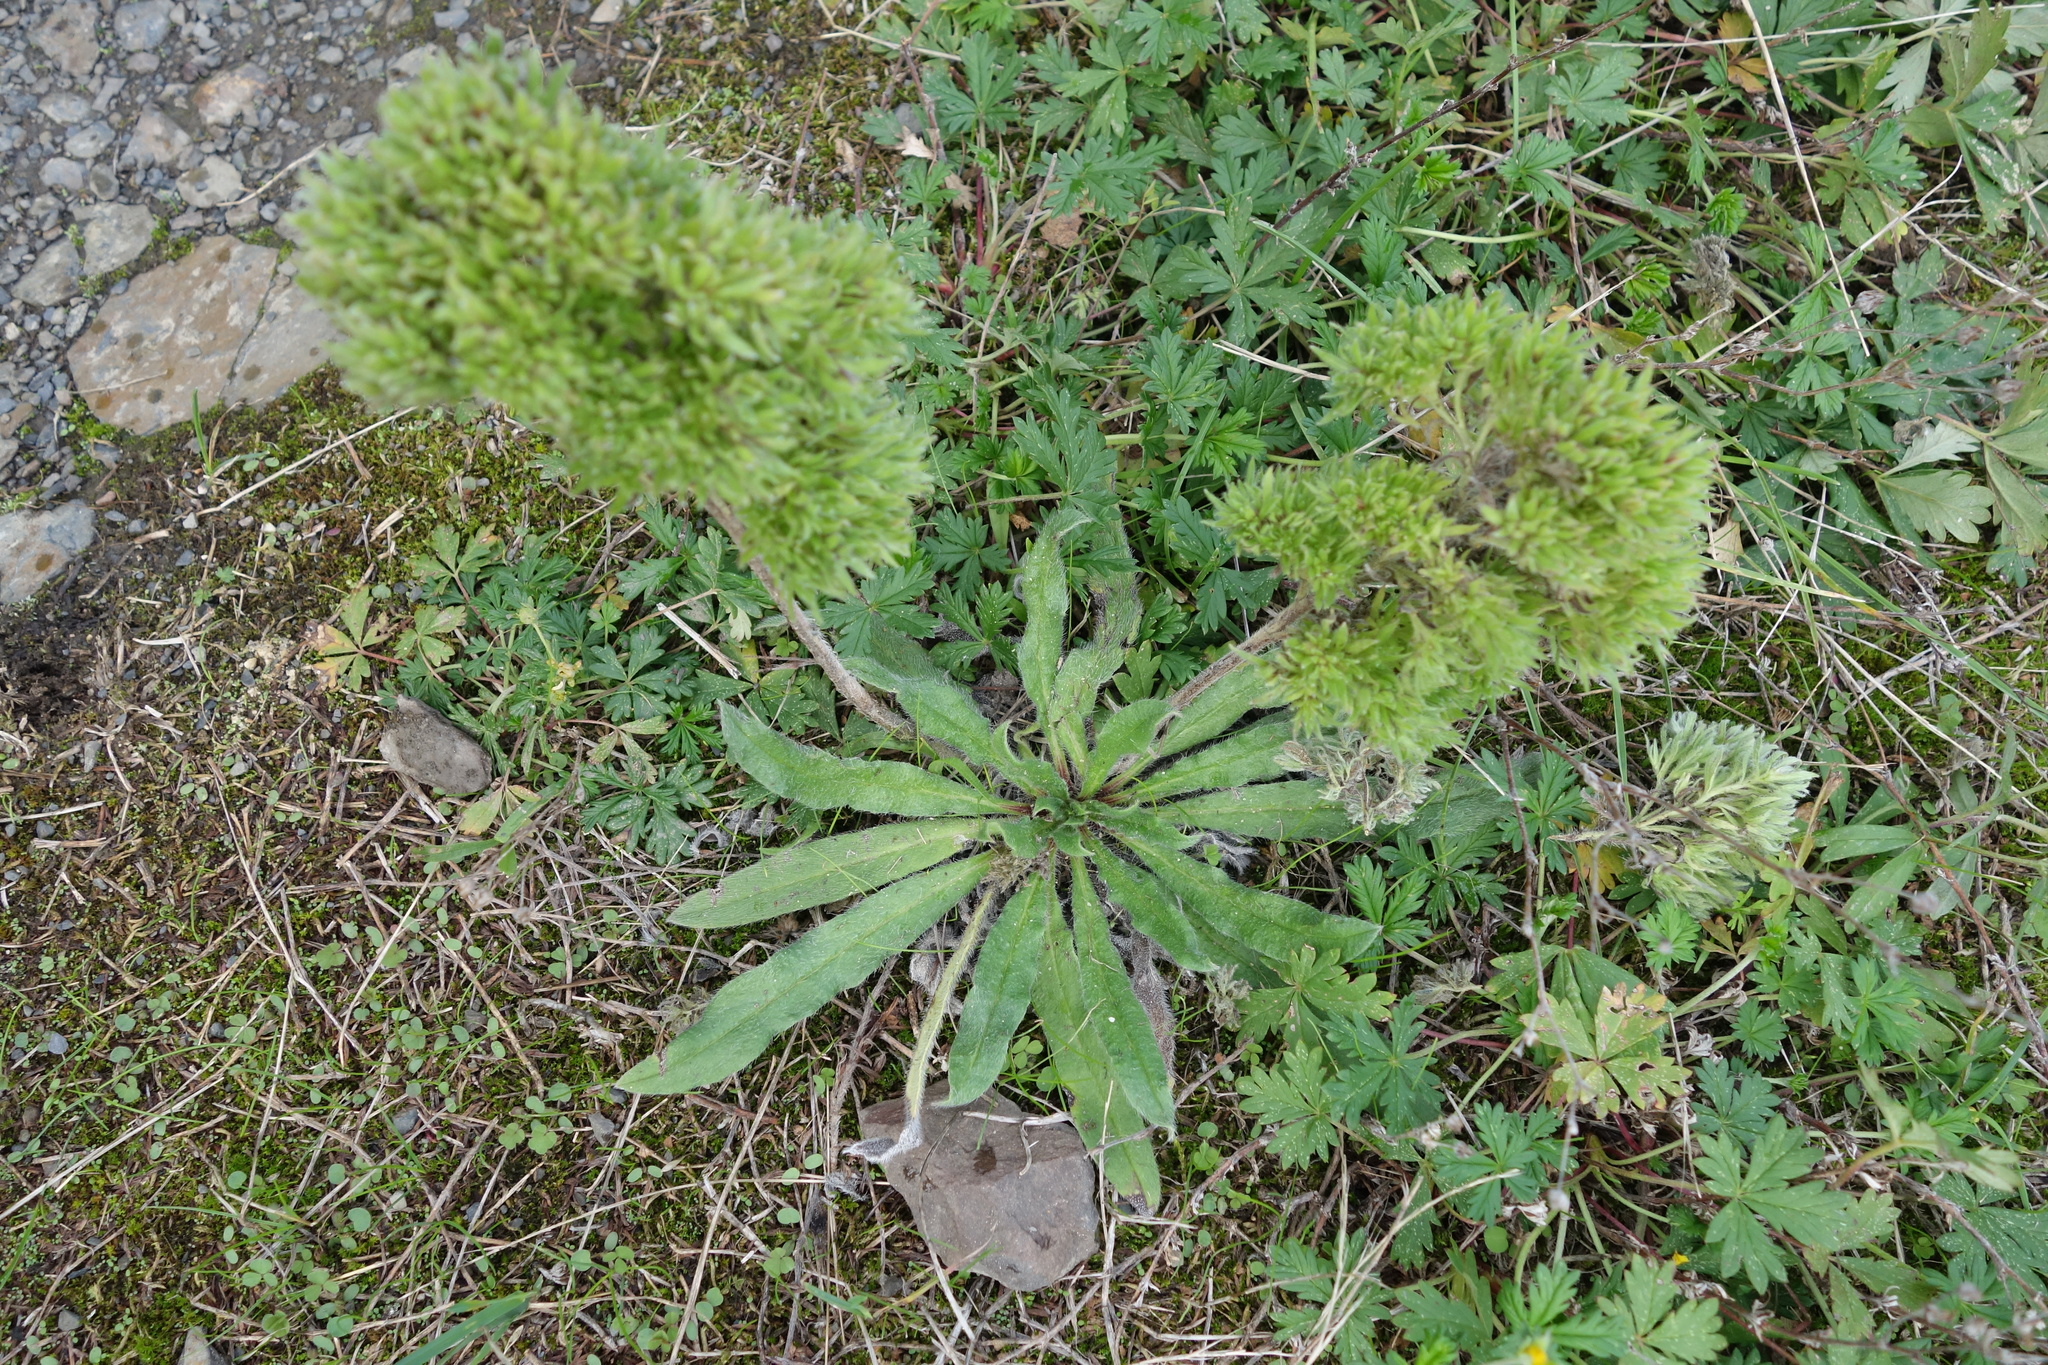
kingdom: Plantae
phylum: Tracheophyta
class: Magnoliopsida
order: Boraginales
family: Boraginaceae
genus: Echium
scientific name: Echium vulgare
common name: Common viper's bugloss
